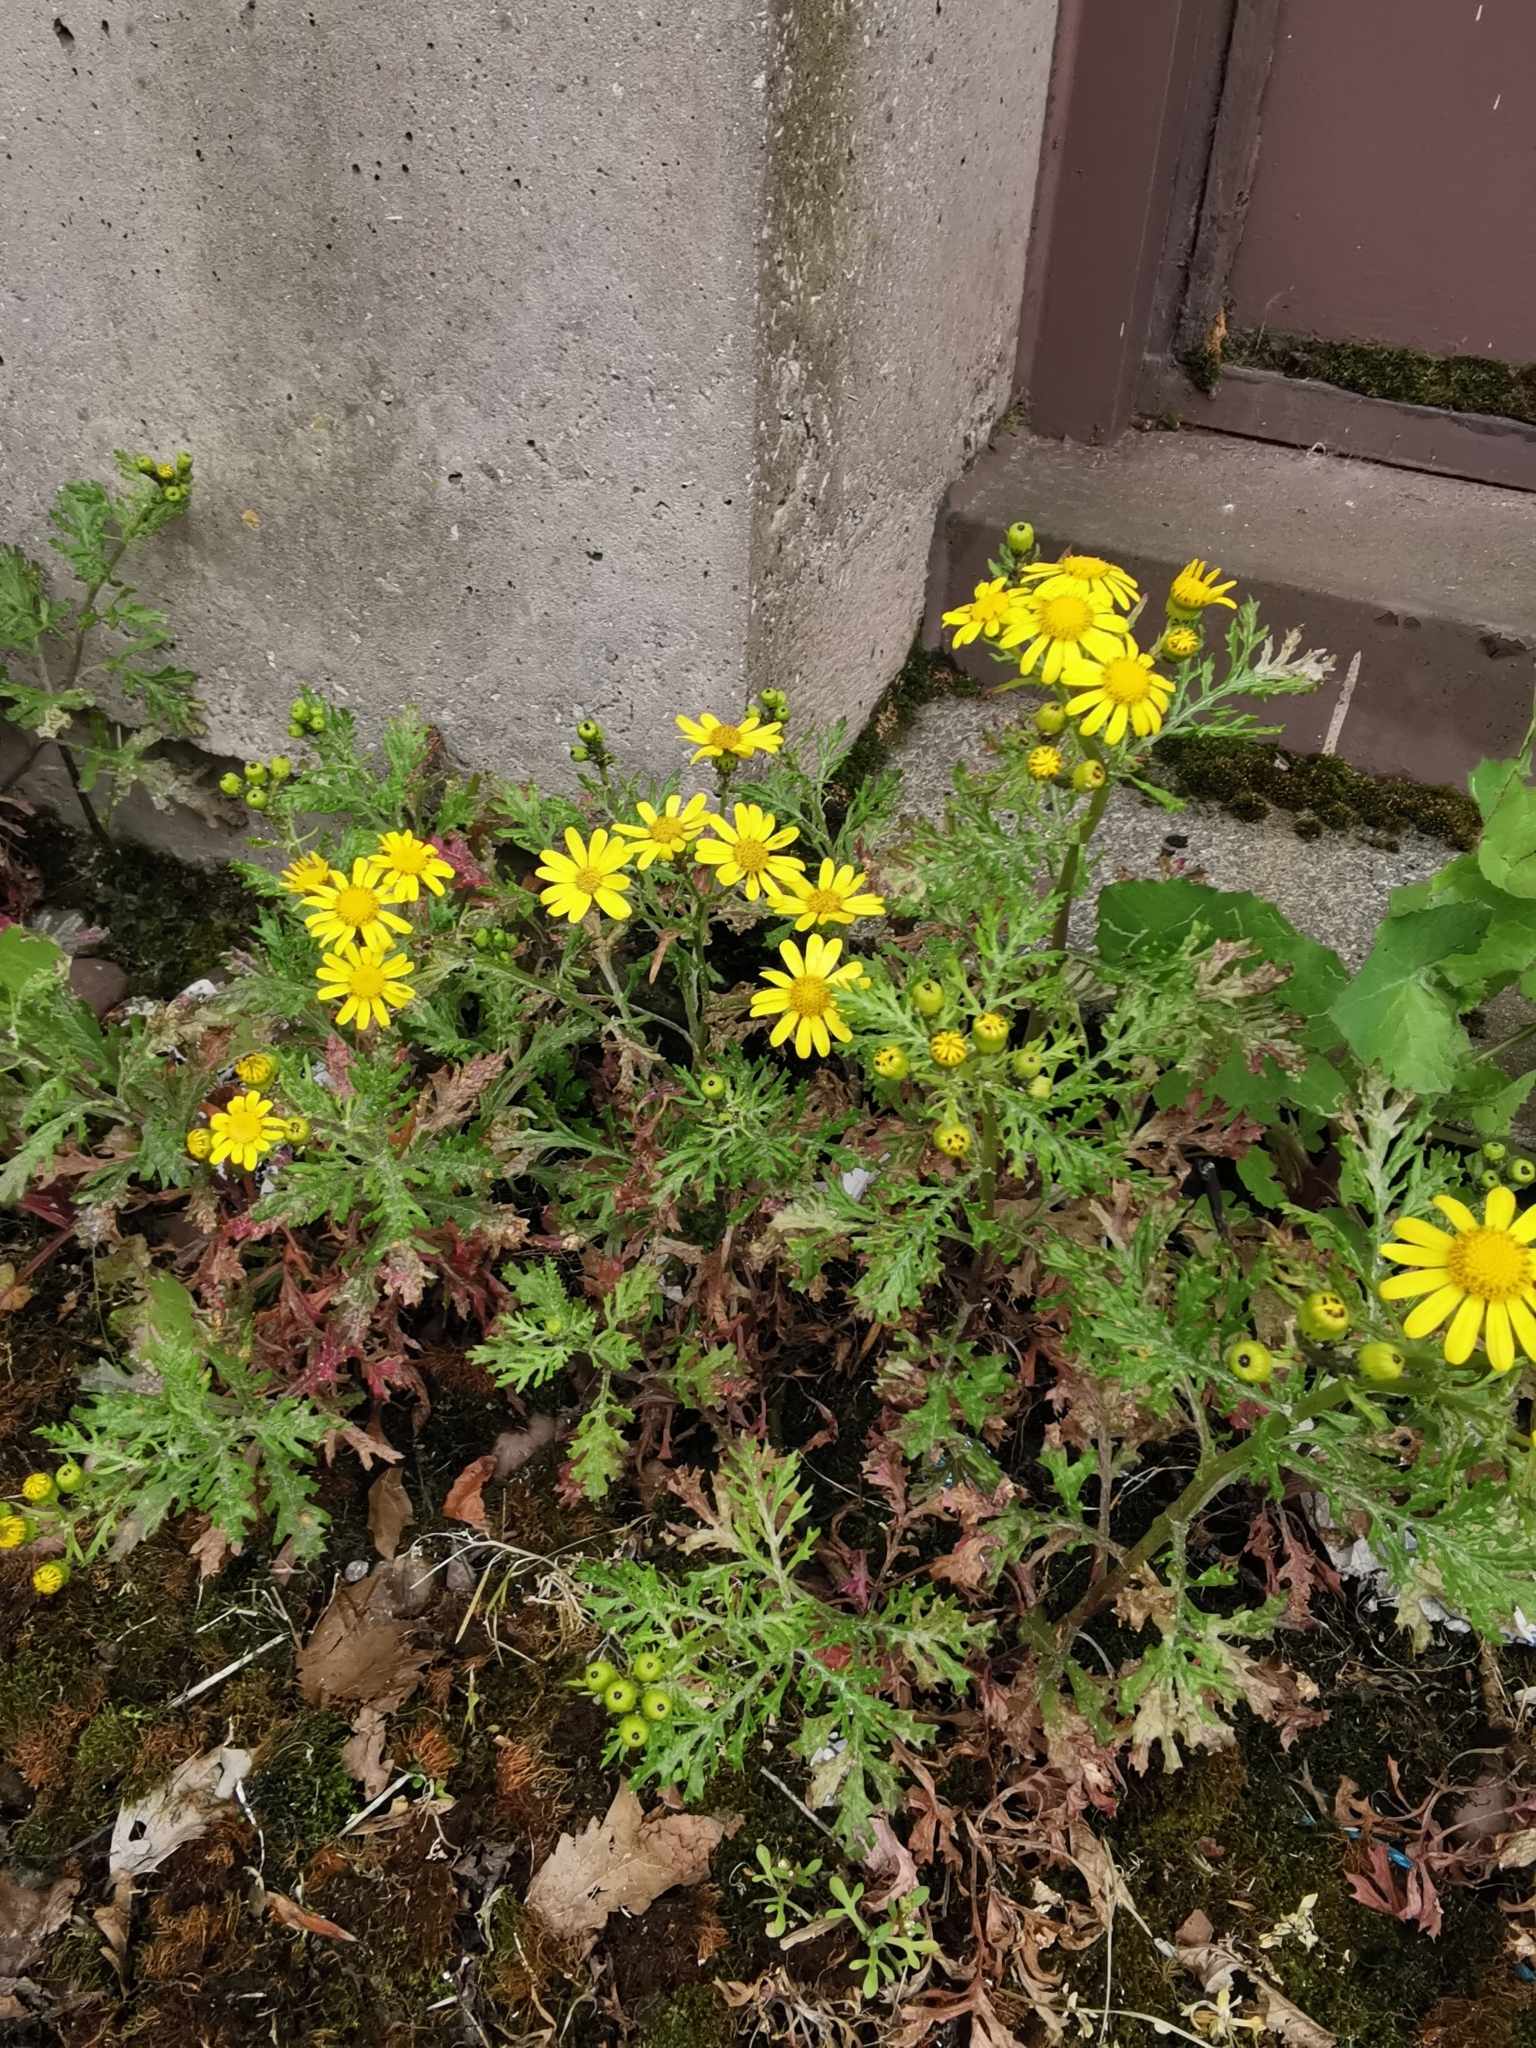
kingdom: Plantae
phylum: Tracheophyta
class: Magnoliopsida
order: Asterales
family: Asteraceae
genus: Senecio
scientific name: Senecio squalidus
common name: Oxford ragwort
